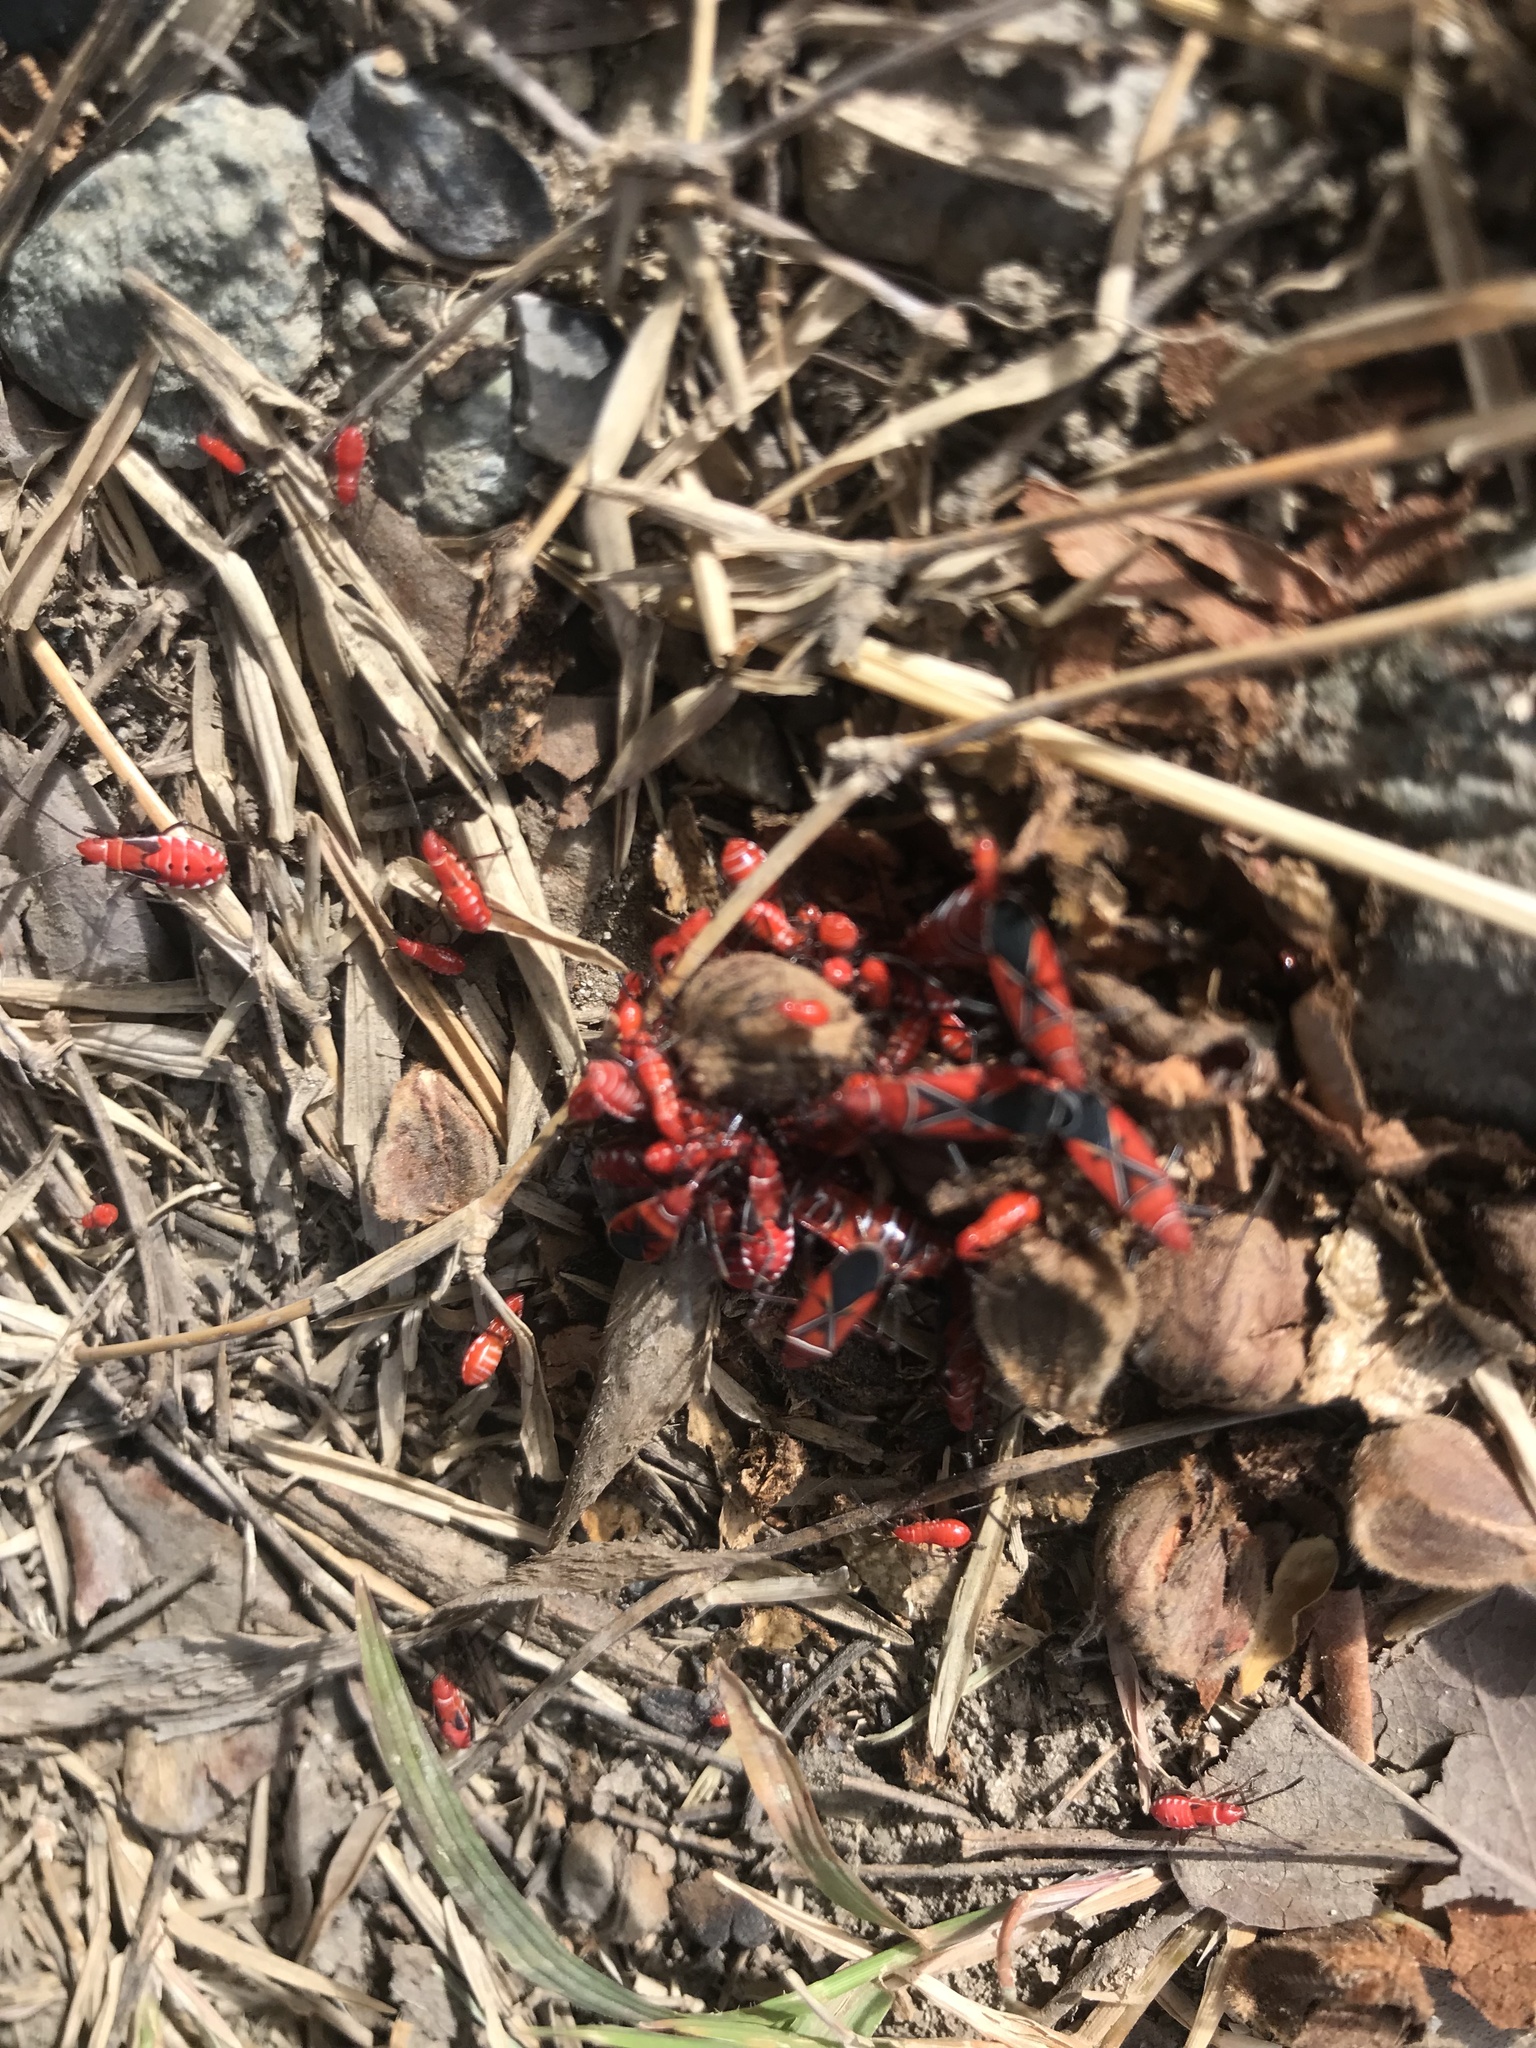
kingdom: Animalia
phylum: Arthropoda
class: Insecta
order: Hemiptera
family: Pyrrhocoridae
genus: Dysdercus
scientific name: Dysdercus andreae
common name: St. andrew's cotton stainer
